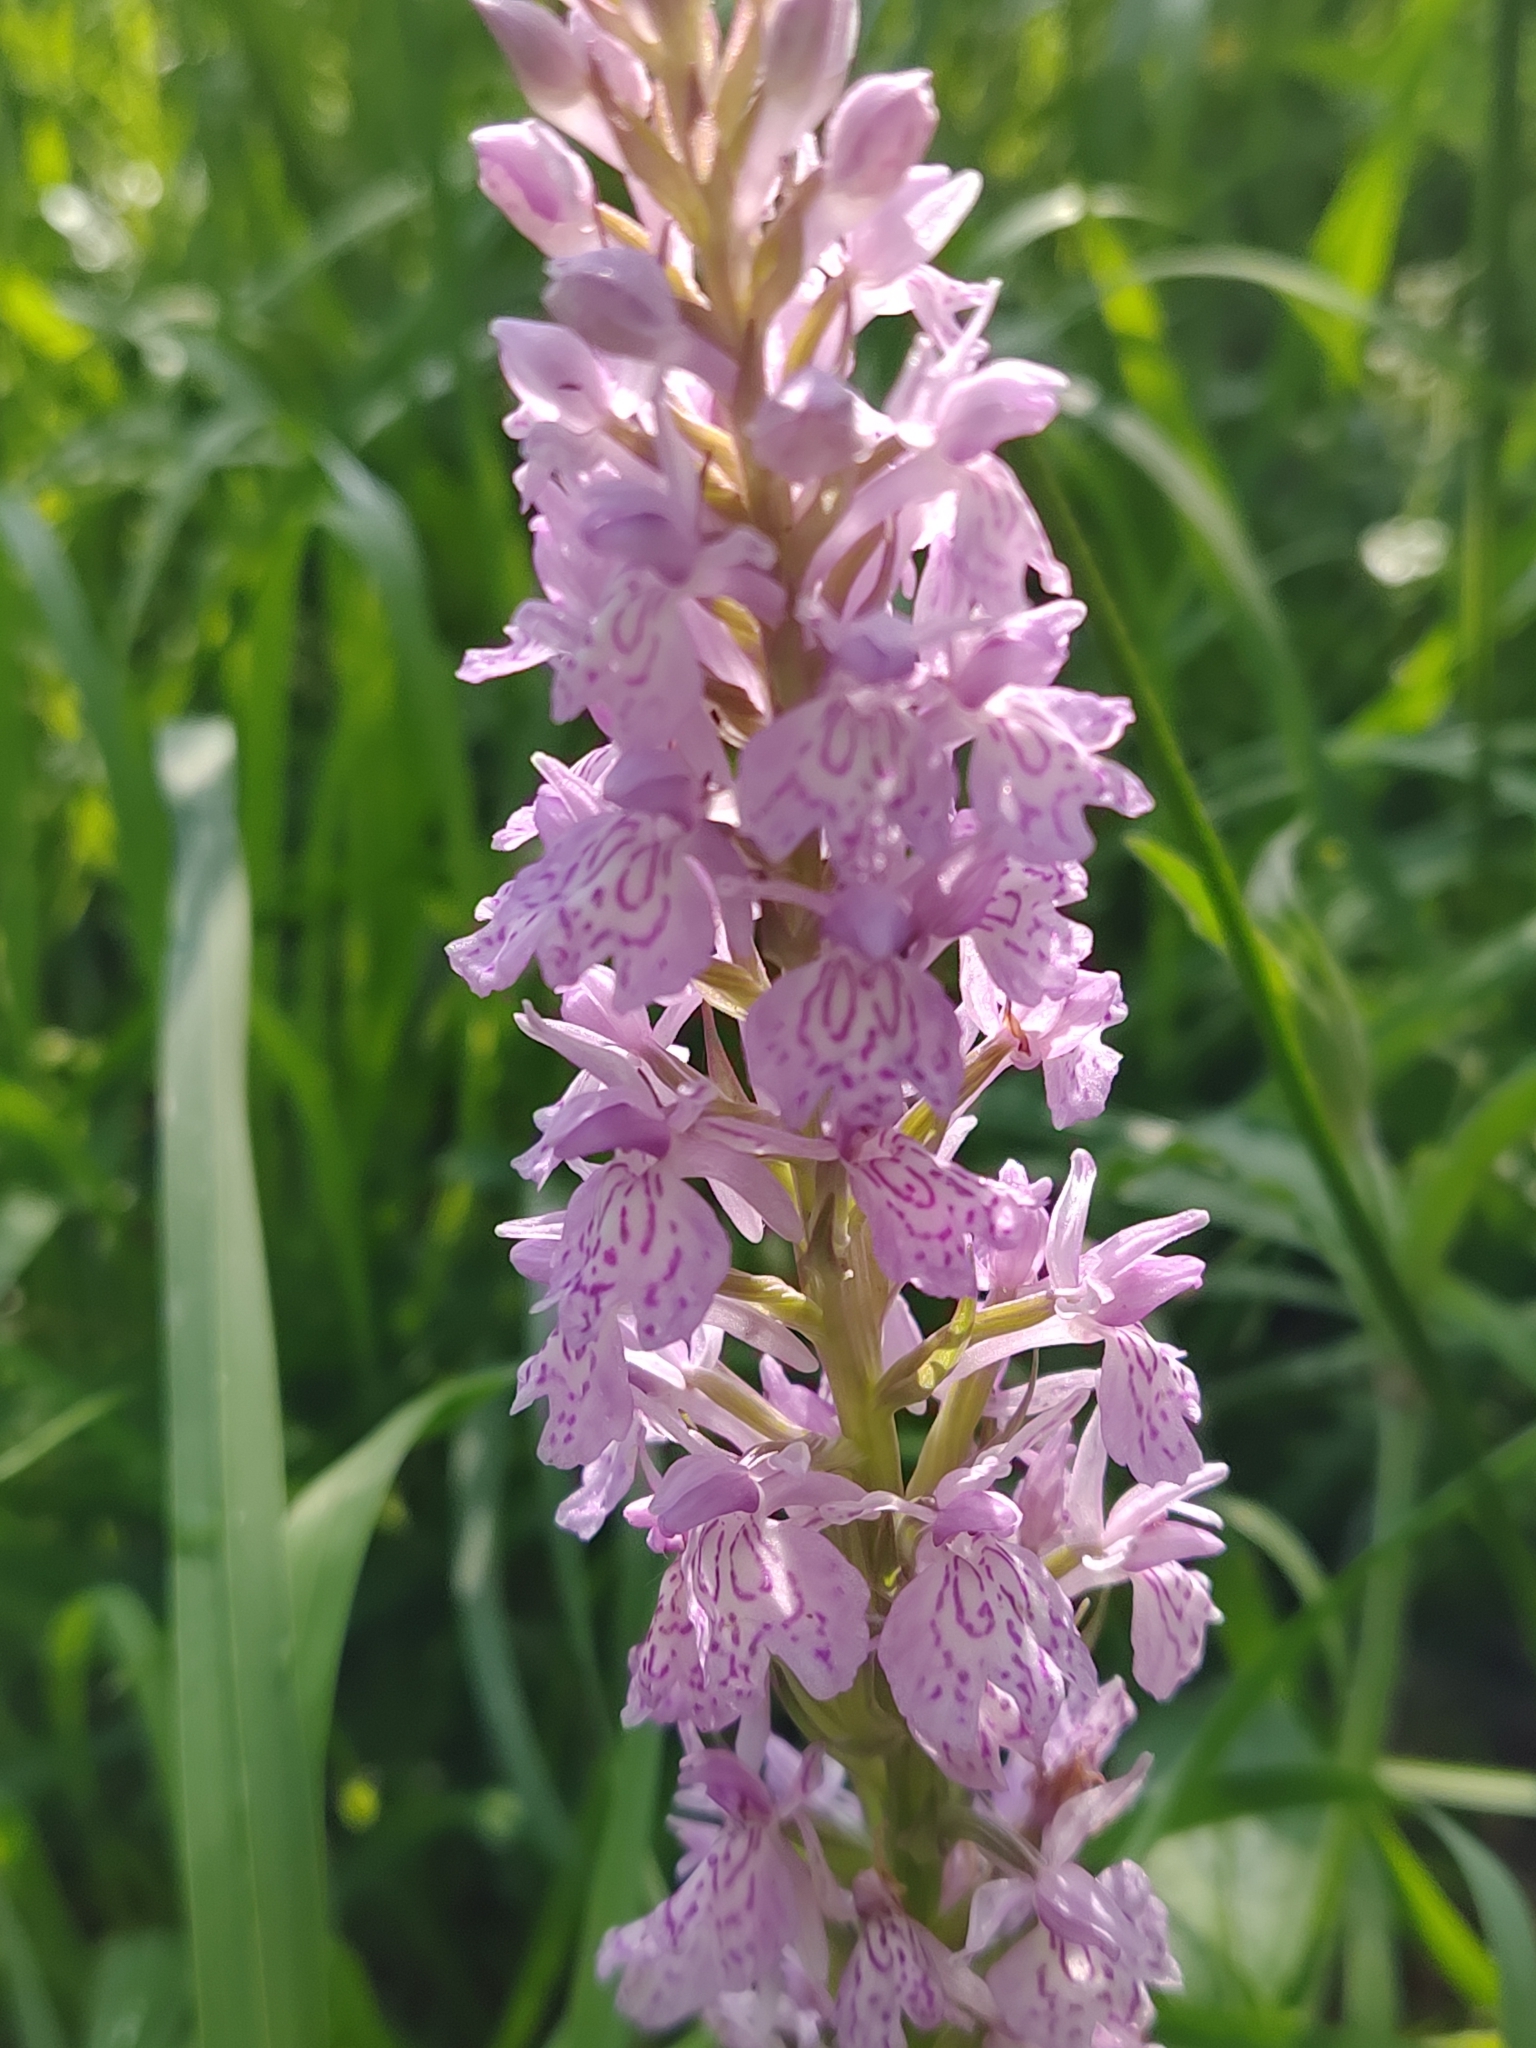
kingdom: Plantae
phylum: Tracheophyta
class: Liliopsida
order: Asparagales
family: Orchidaceae
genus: Dactylorhiza
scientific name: Dactylorhiza maculata
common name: Heath spotted-orchid
